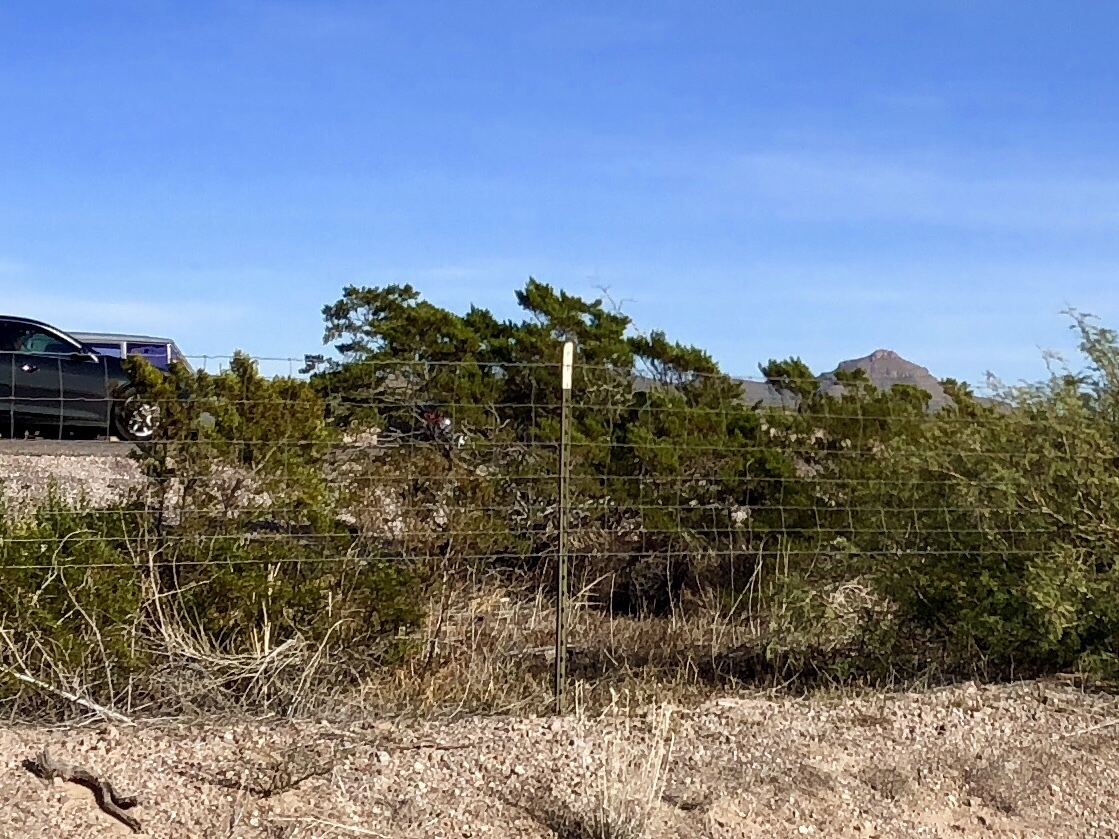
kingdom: Plantae
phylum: Tracheophyta
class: Magnoliopsida
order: Zygophyllales
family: Zygophyllaceae
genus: Larrea
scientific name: Larrea tridentata
